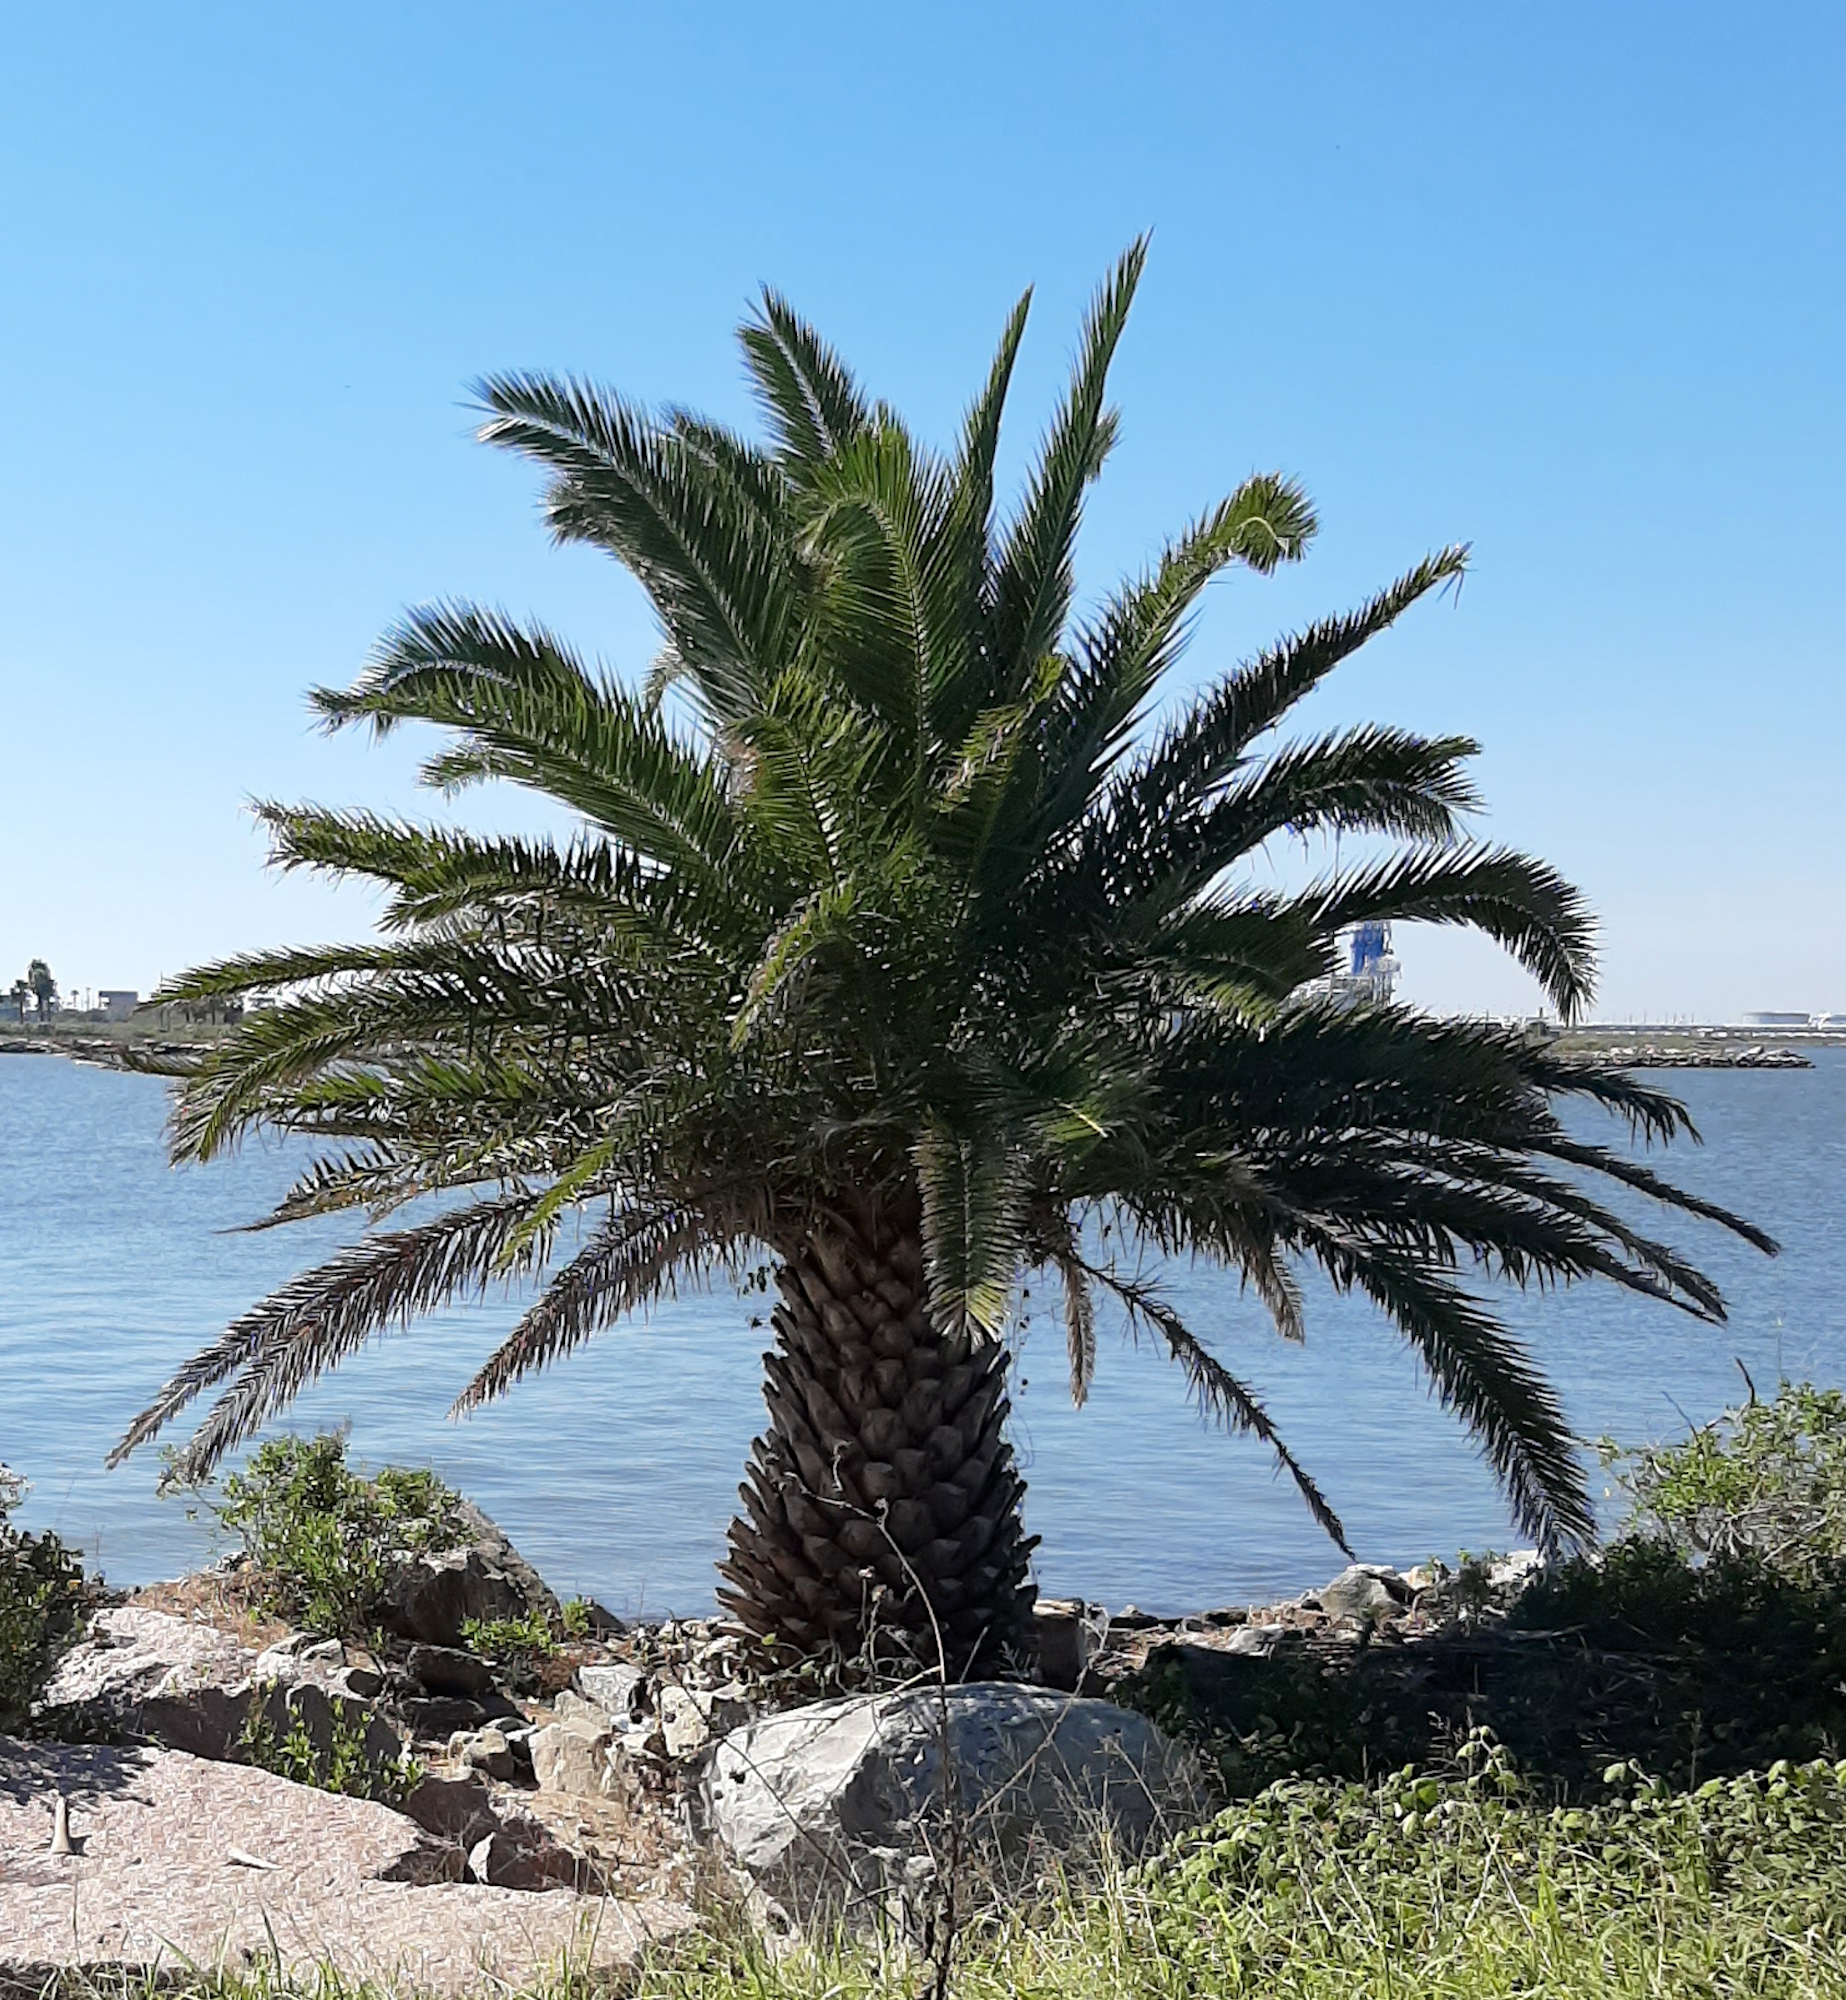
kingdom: Plantae
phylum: Tracheophyta
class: Liliopsida
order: Arecales
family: Arecaceae
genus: Phoenix
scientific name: Phoenix canariensis
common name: Canary island date palm
